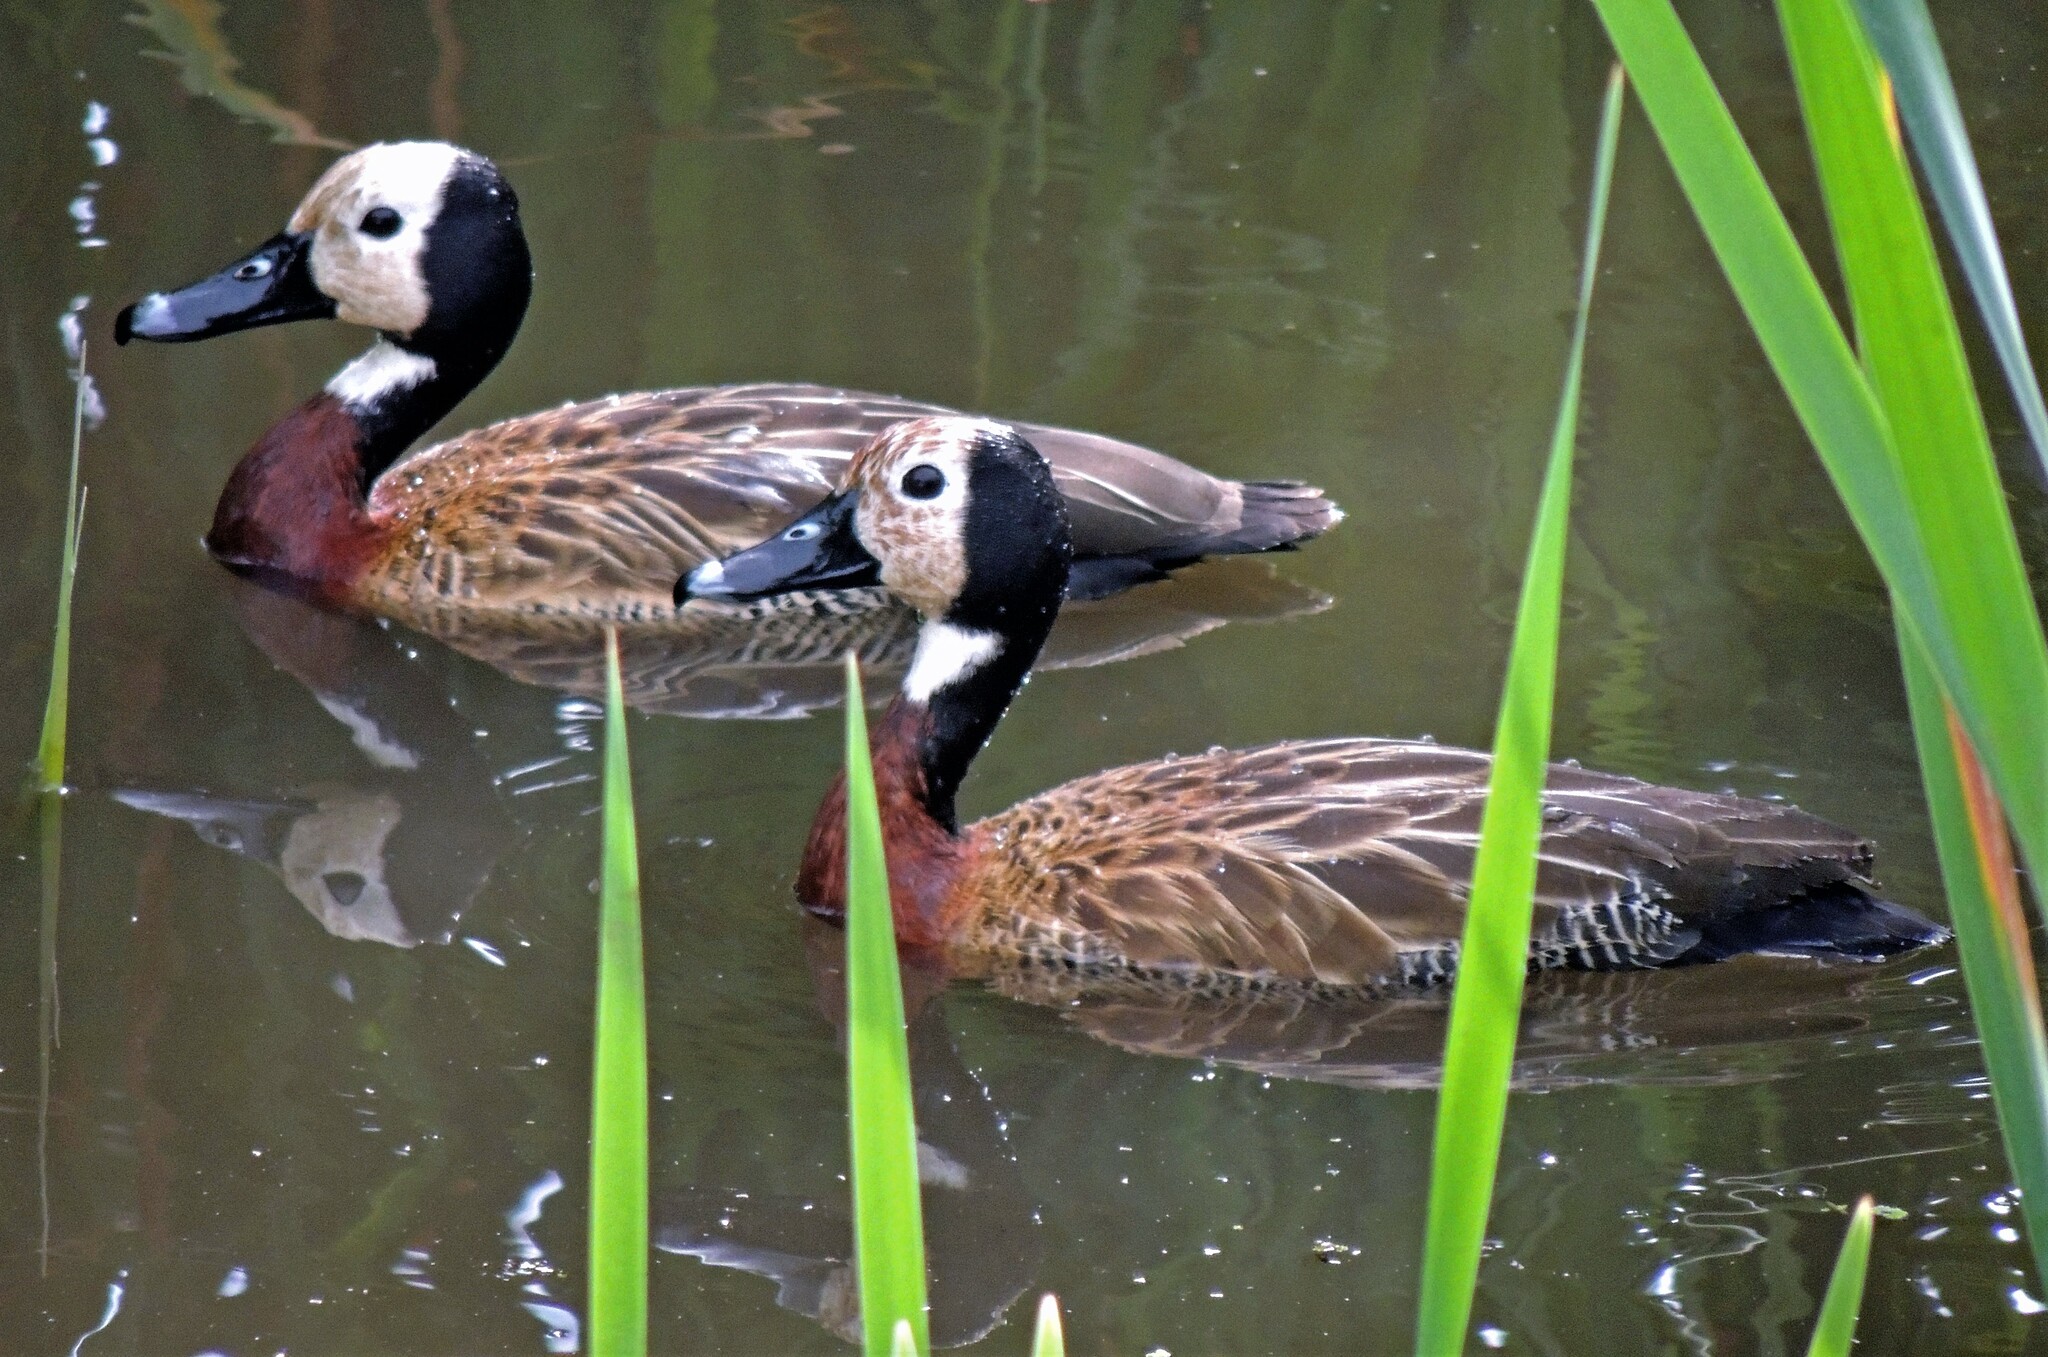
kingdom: Animalia
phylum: Chordata
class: Aves
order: Anseriformes
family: Anatidae
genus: Dendrocygna
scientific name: Dendrocygna viduata
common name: White-faced whistling duck
